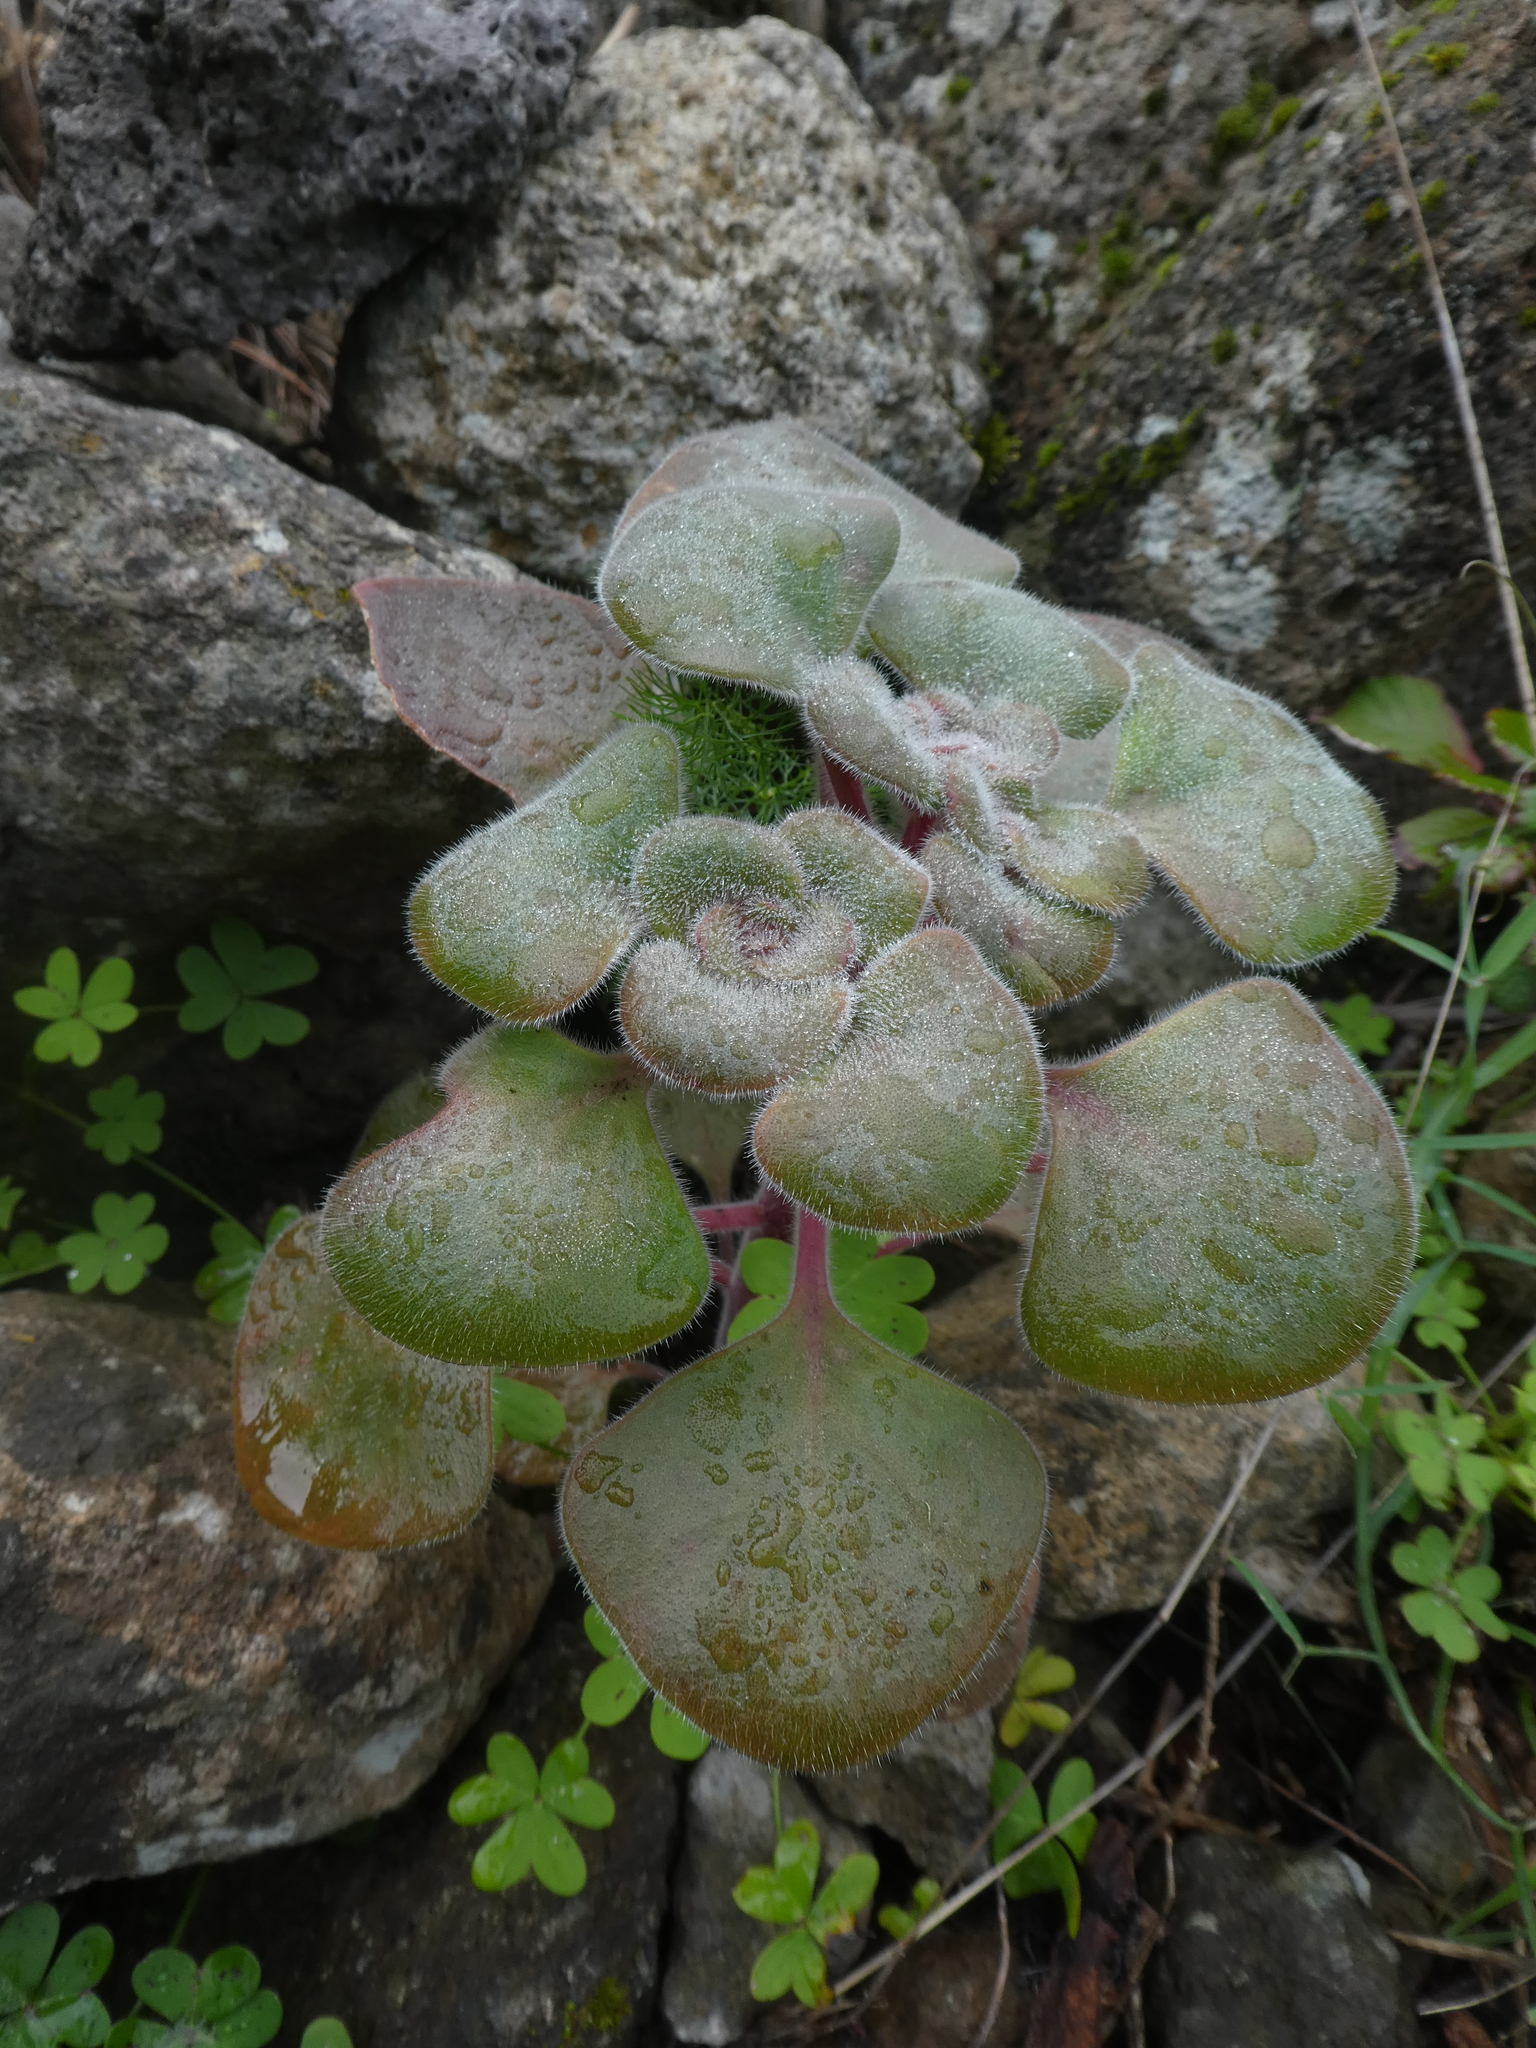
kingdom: Plantae
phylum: Tracheophyta
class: Magnoliopsida
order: Saxifragales
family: Crassulaceae
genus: Aichryson
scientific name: Aichryson laxum
